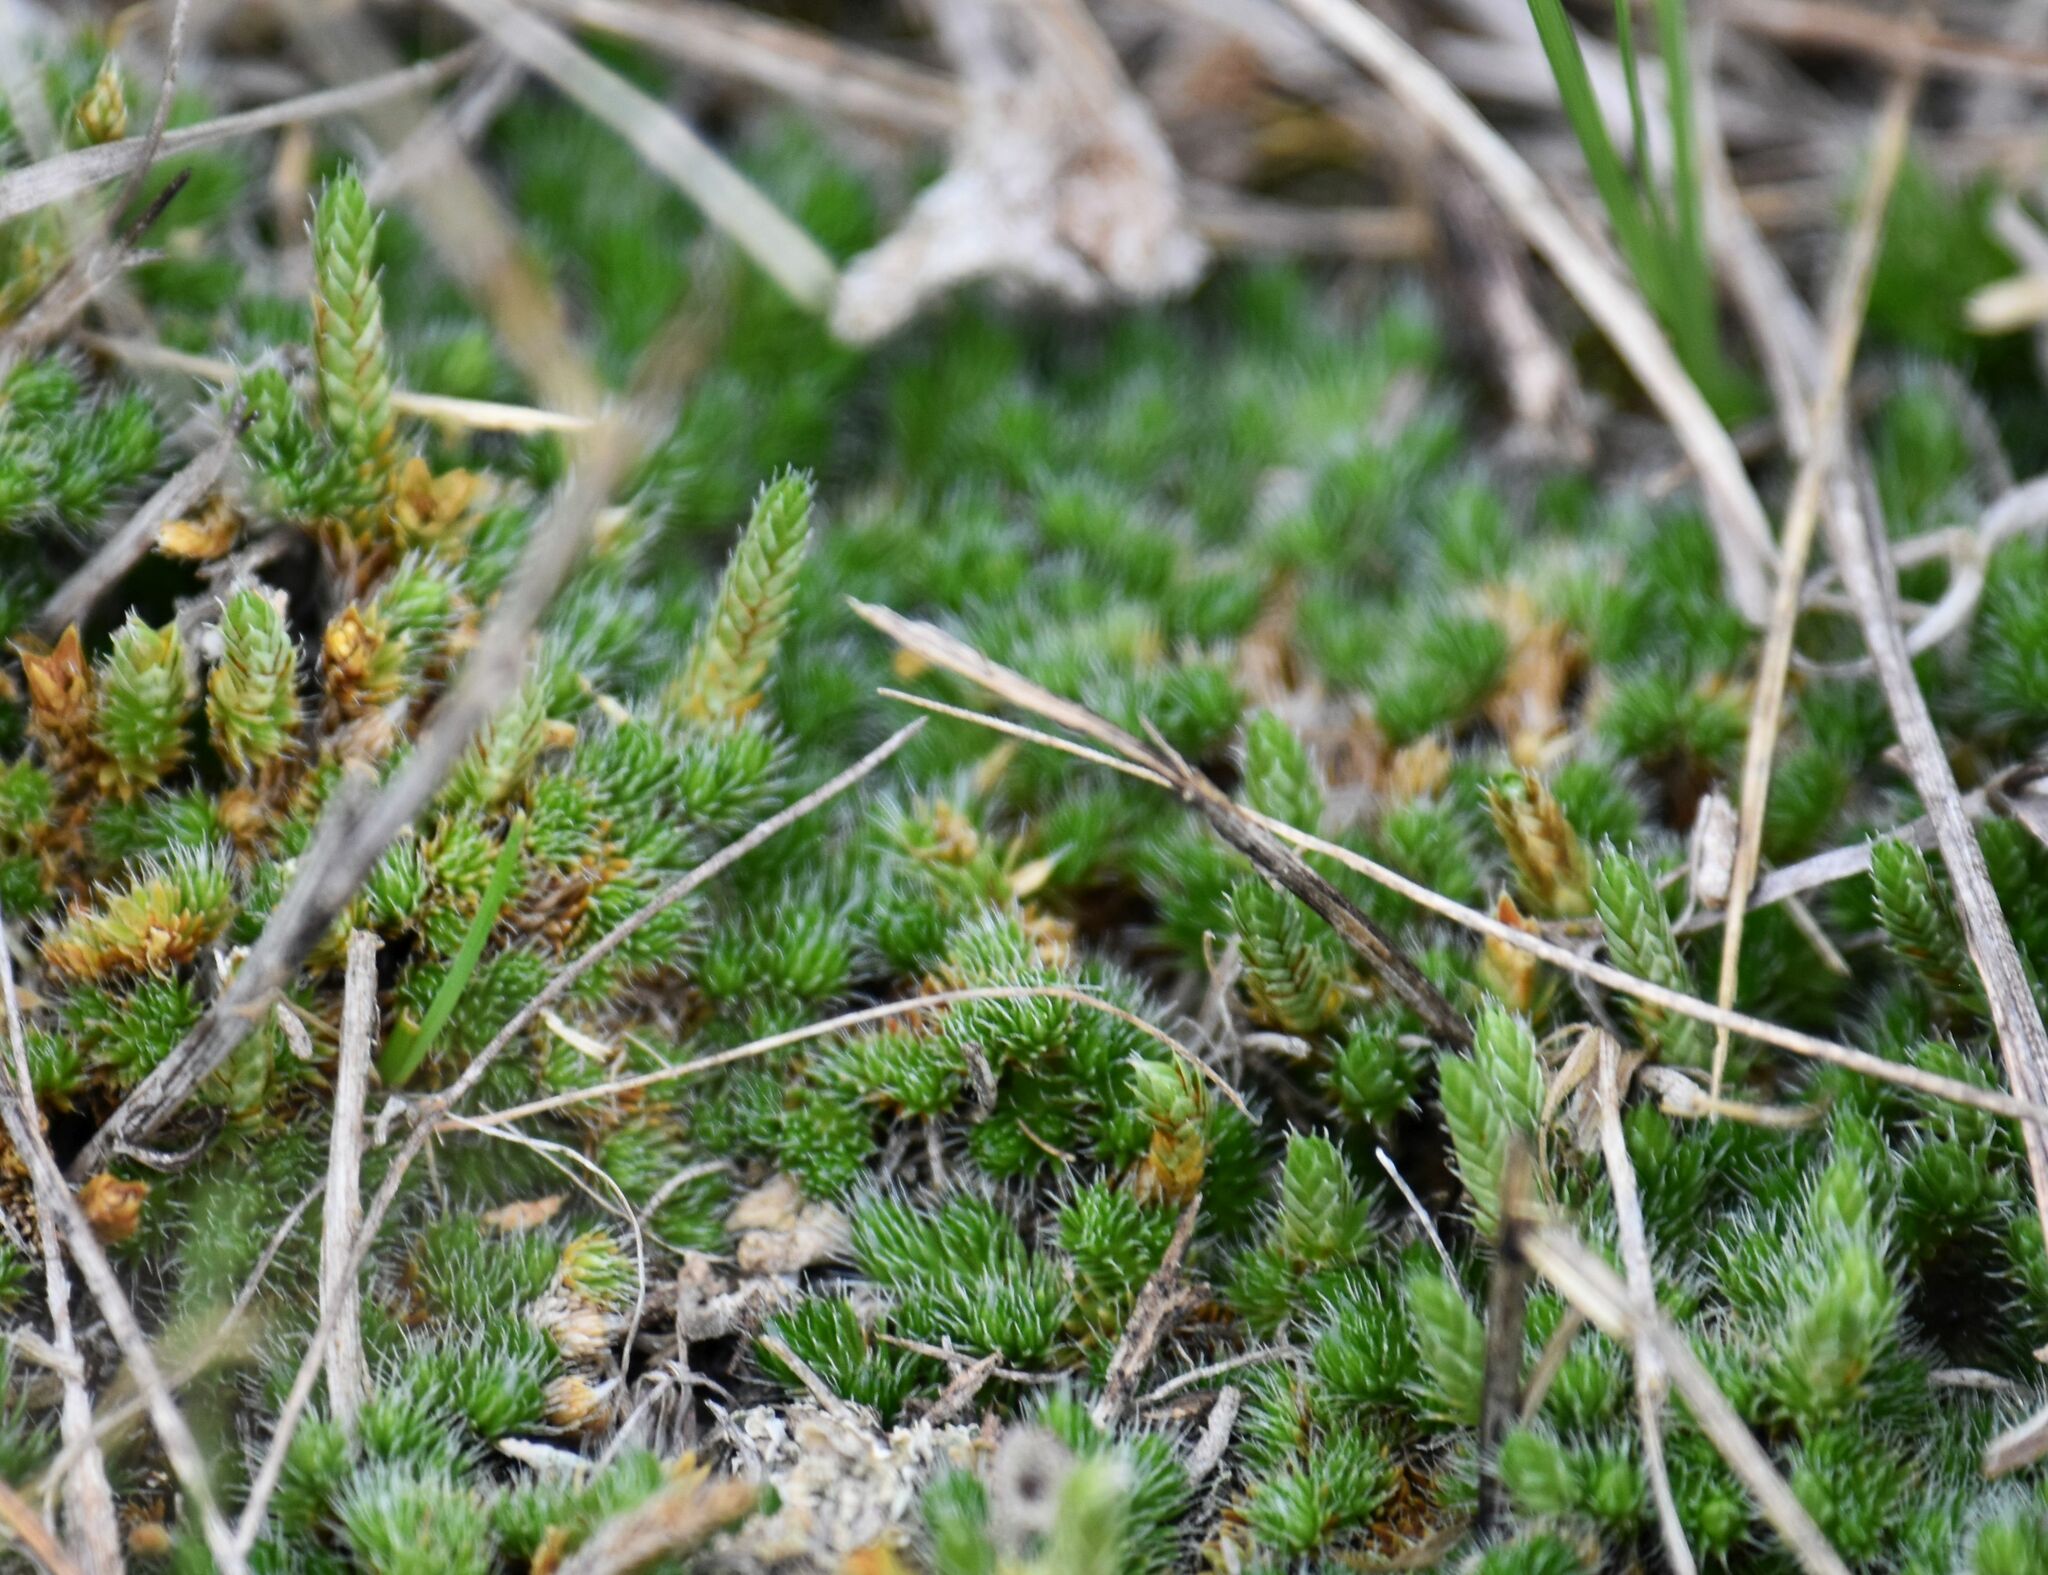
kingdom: Plantae
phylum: Tracheophyta
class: Lycopodiopsida
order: Selaginellales
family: Selaginellaceae
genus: Selaginella
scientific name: Selaginella densa
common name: Mountain spike-moss
